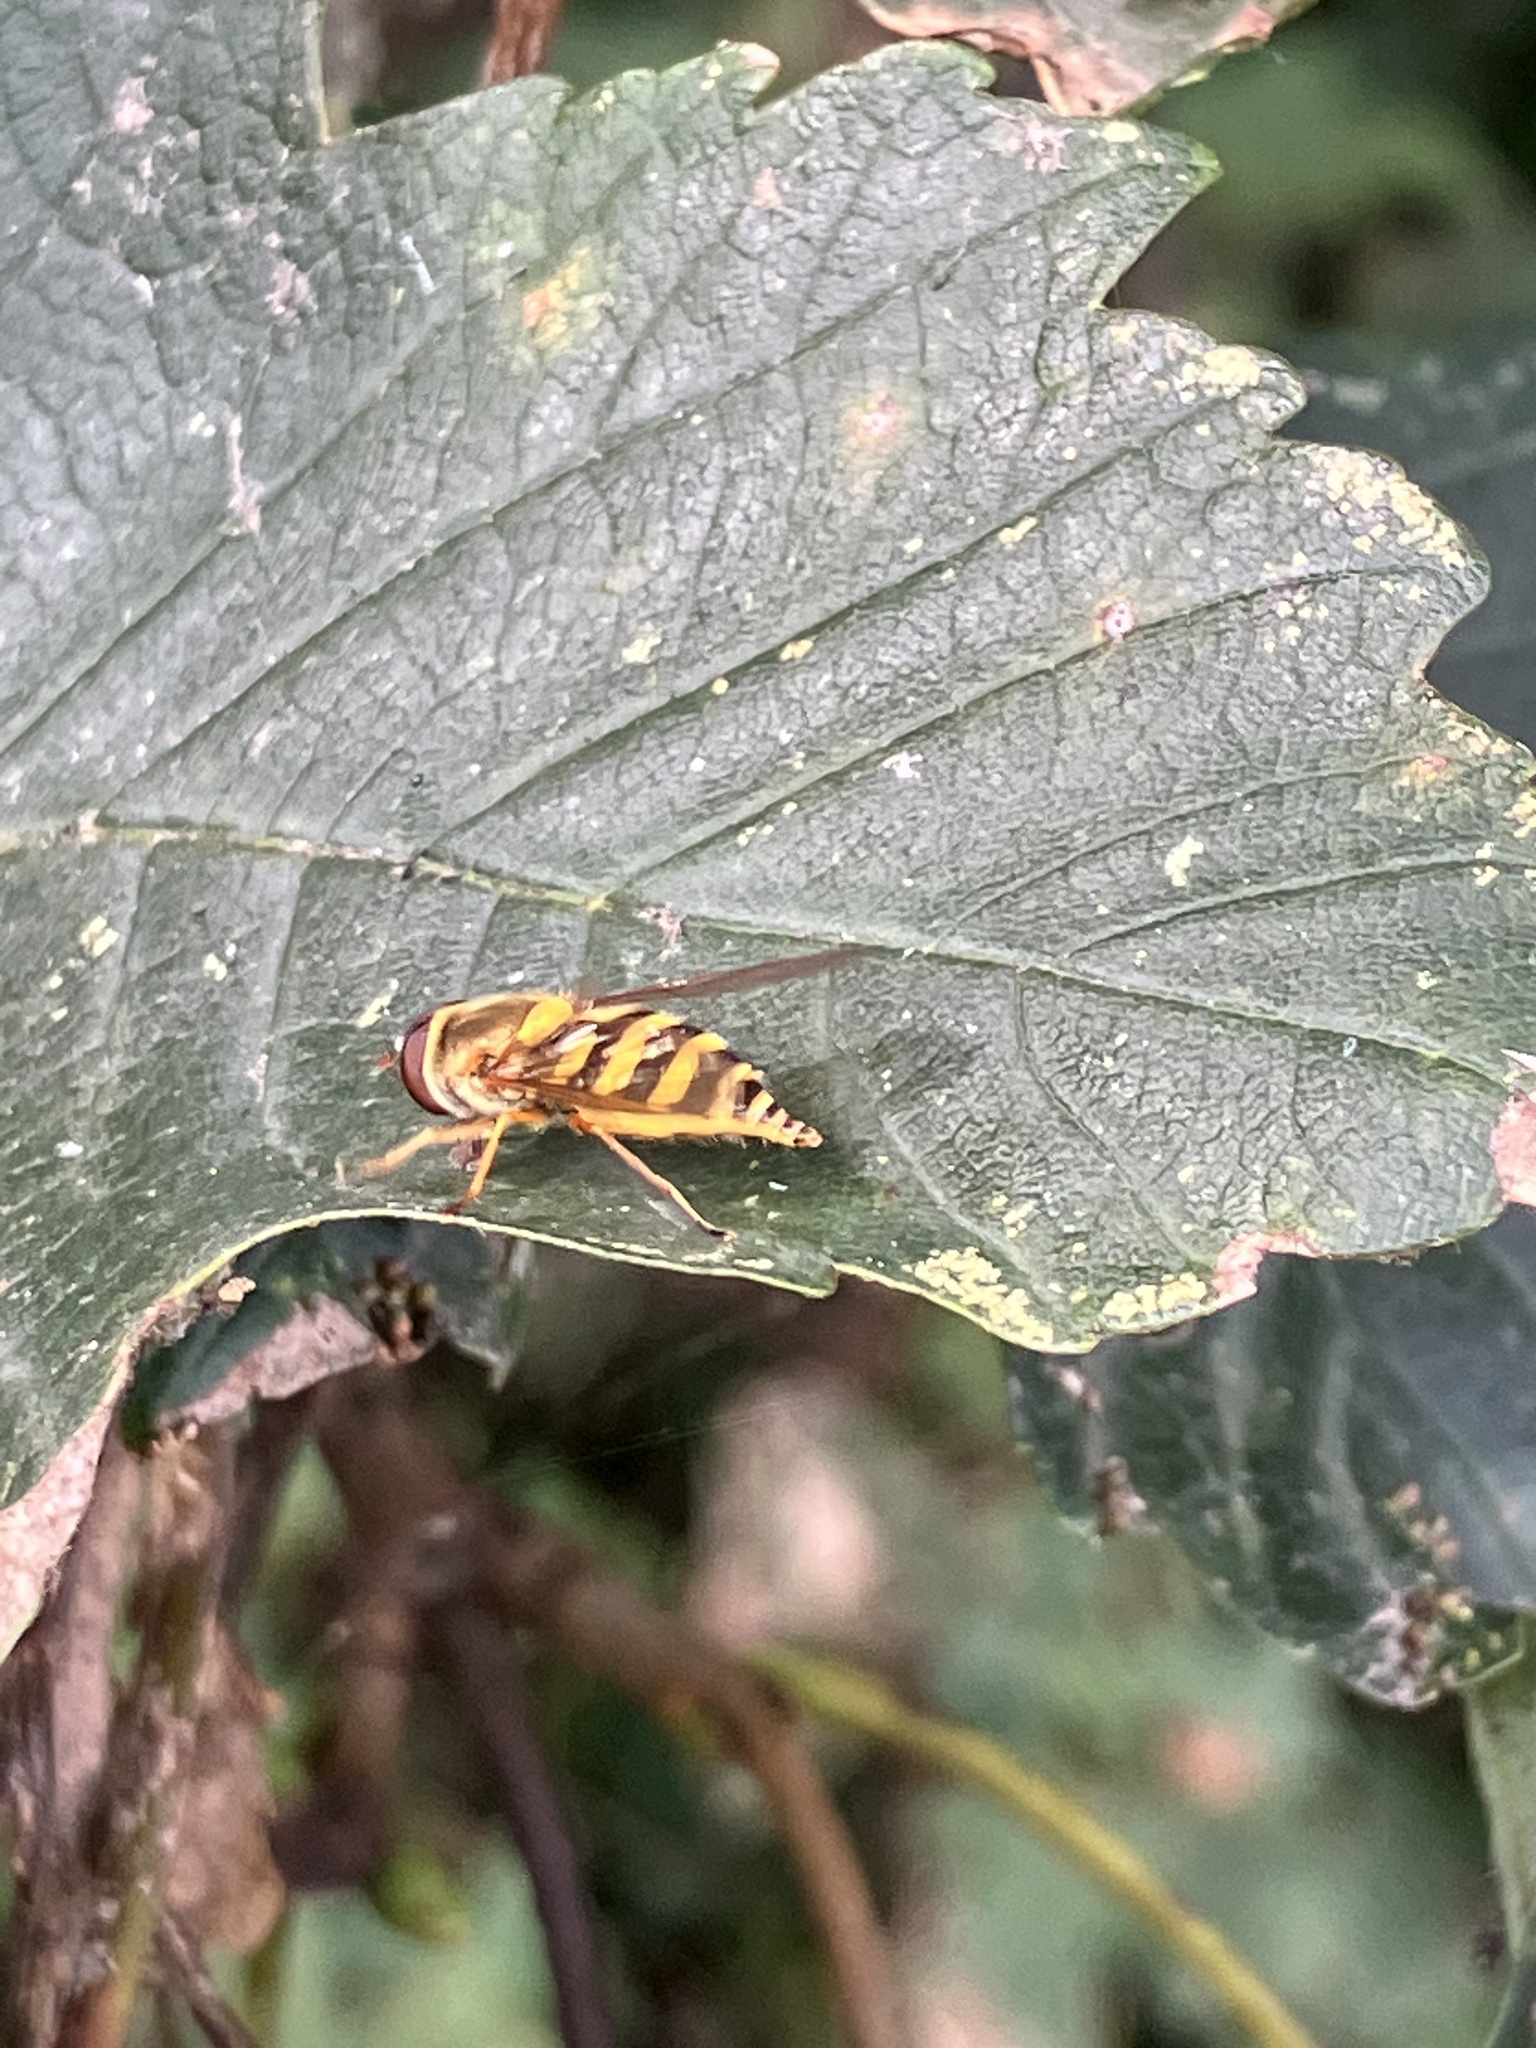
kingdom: Animalia
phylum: Arthropoda
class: Insecta
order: Diptera
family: Syrphidae
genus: Syrphus
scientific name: Syrphus
